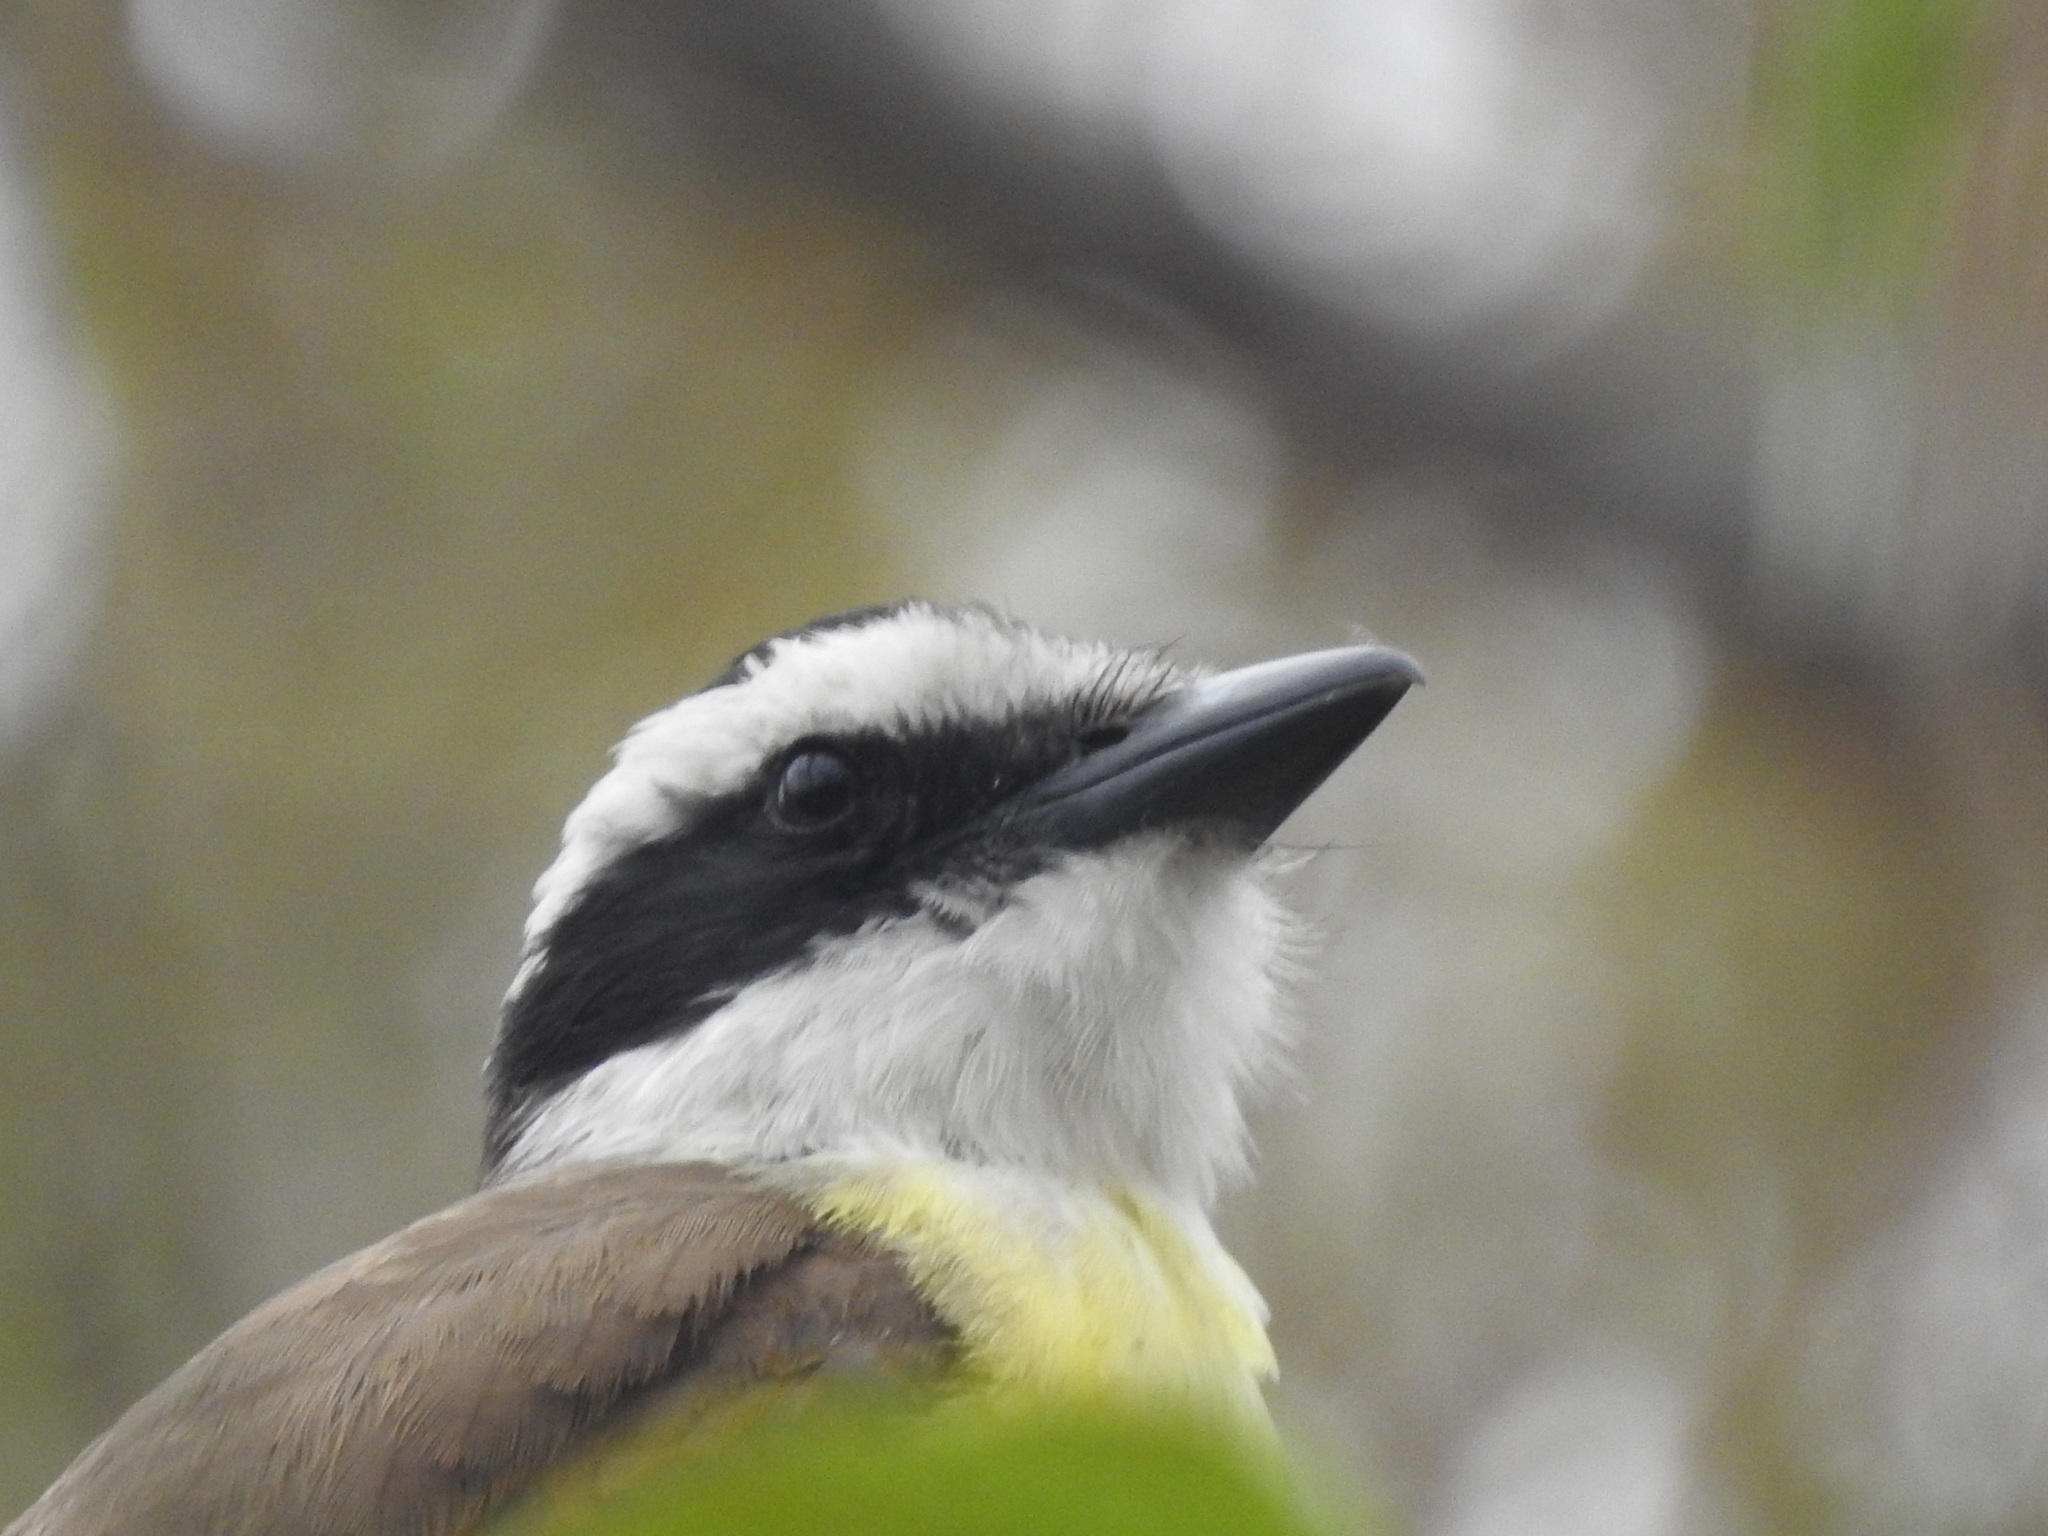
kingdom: Animalia
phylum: Chordata
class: Aves
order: Passeriformes
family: Tyrannidae
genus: Pitangus
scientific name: Pitangus sulphuratus
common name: Great kiskadee
